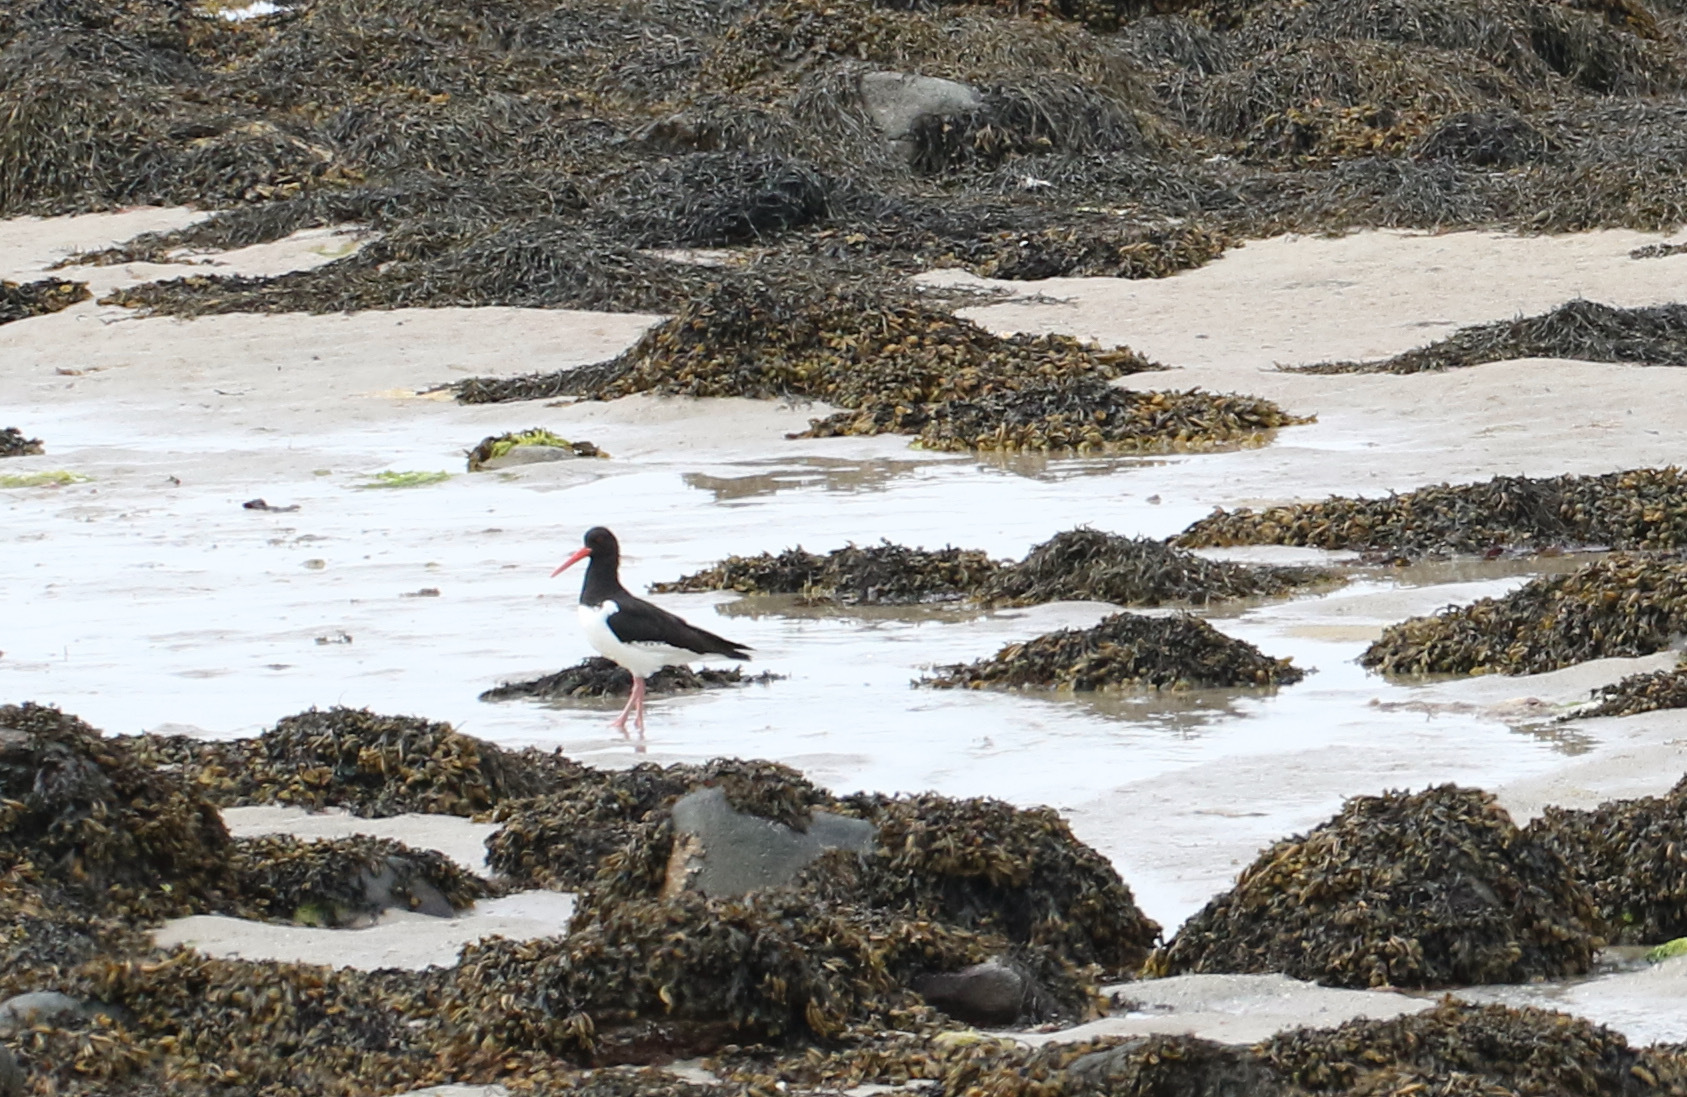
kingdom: Animalia
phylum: Chordata
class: Aves
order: Charadriiformes
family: Haematopodidae
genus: Haematopus
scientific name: Haematopus ostralegus
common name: Eurasian oystercatcher
